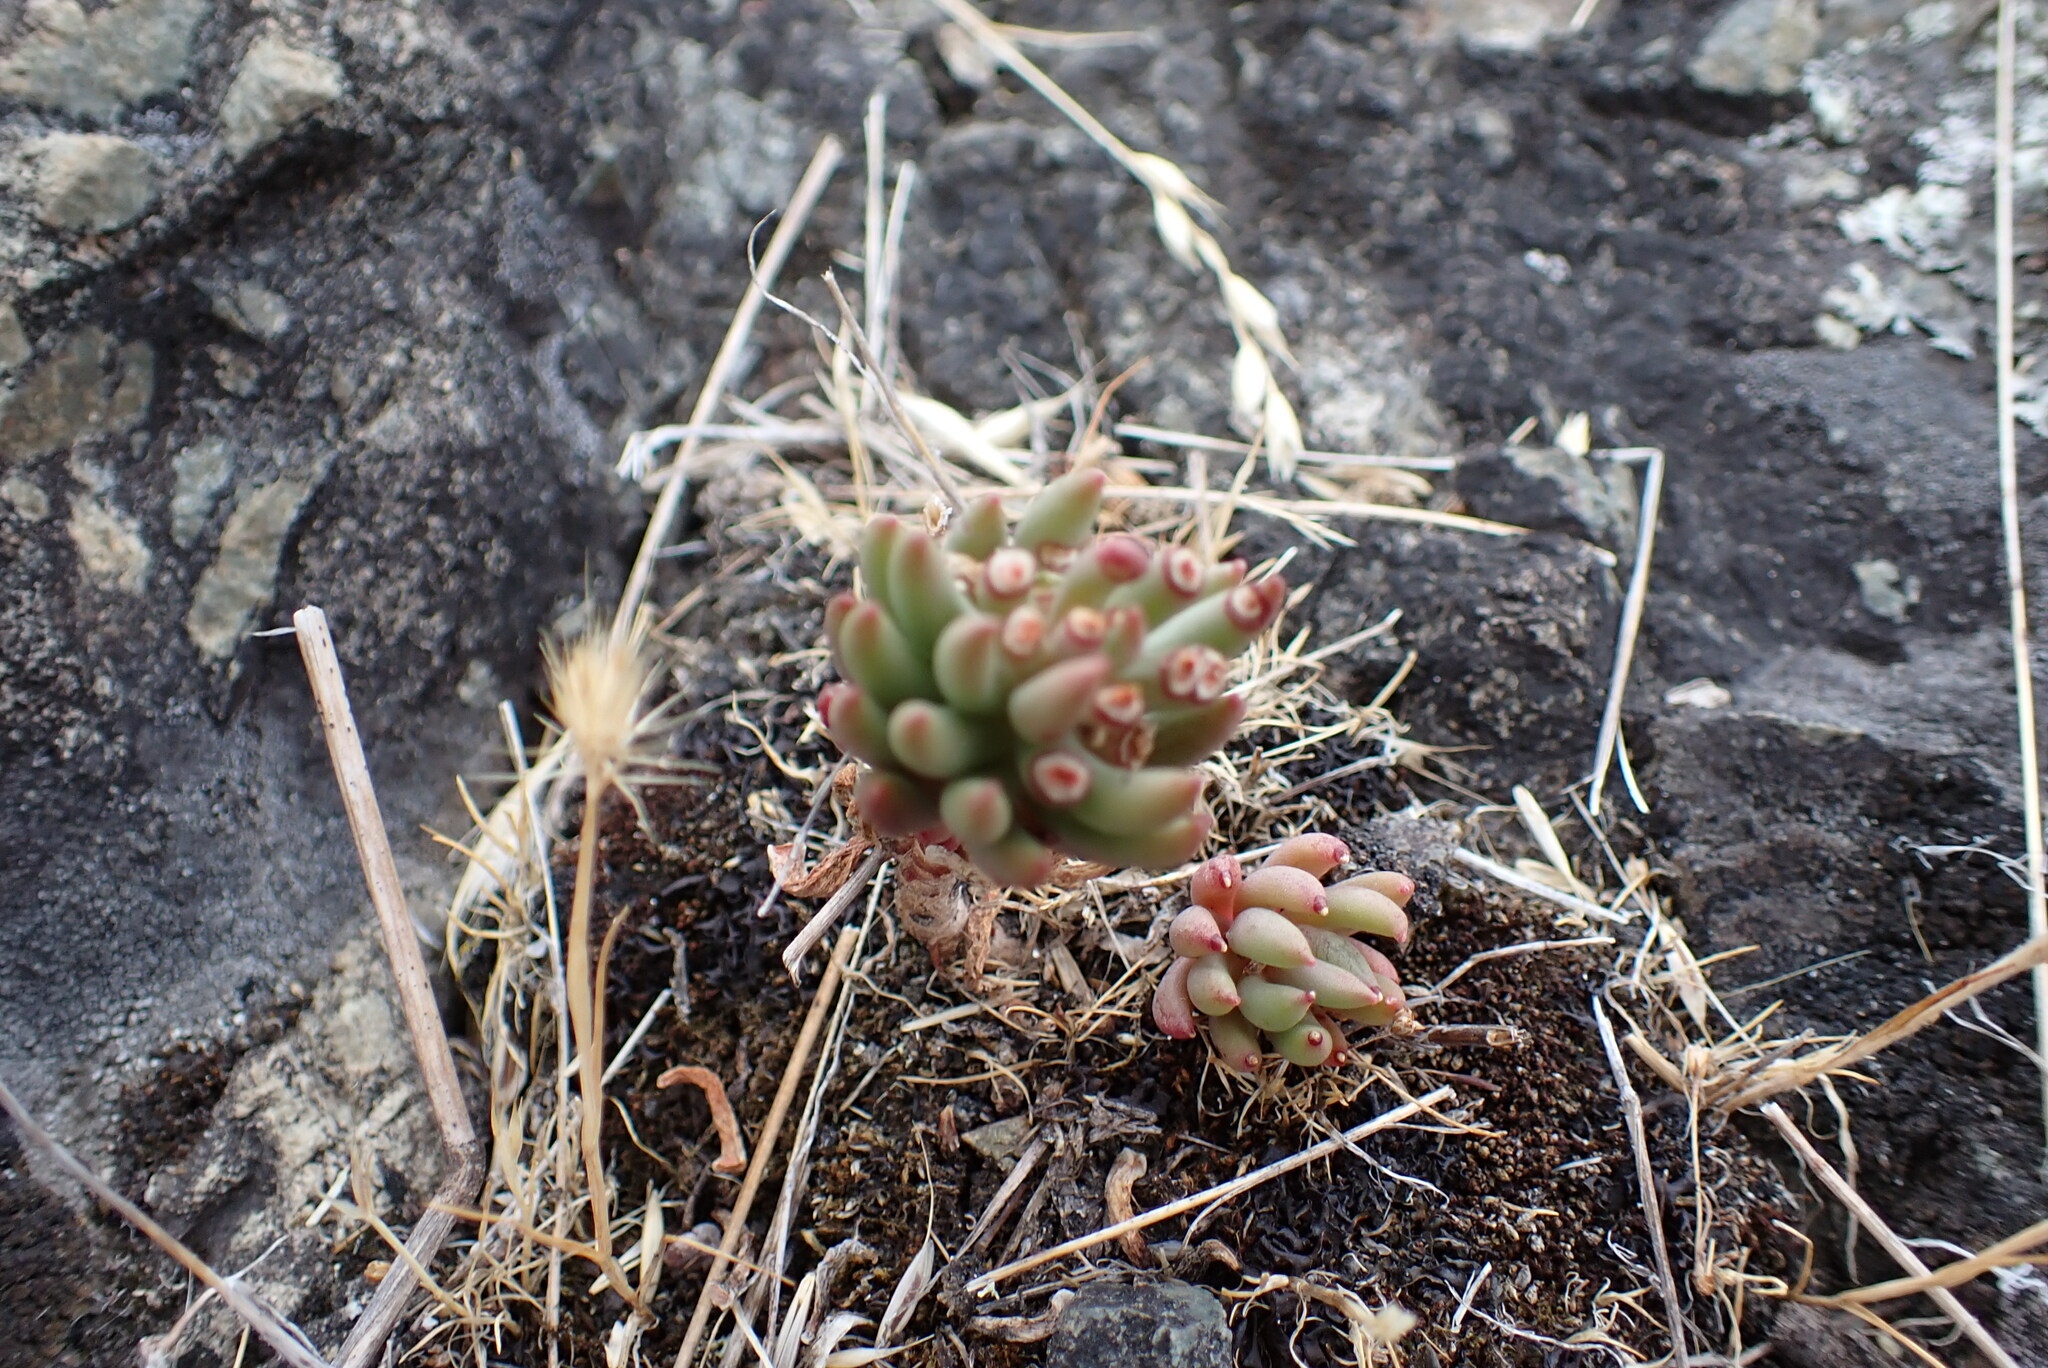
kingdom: Plantae
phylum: Tracheophyta
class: Magnoliopsida
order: Saxifragales
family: Crassulaceae
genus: Sedum
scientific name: Sedum lanceolatum
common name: Common stonecrop
